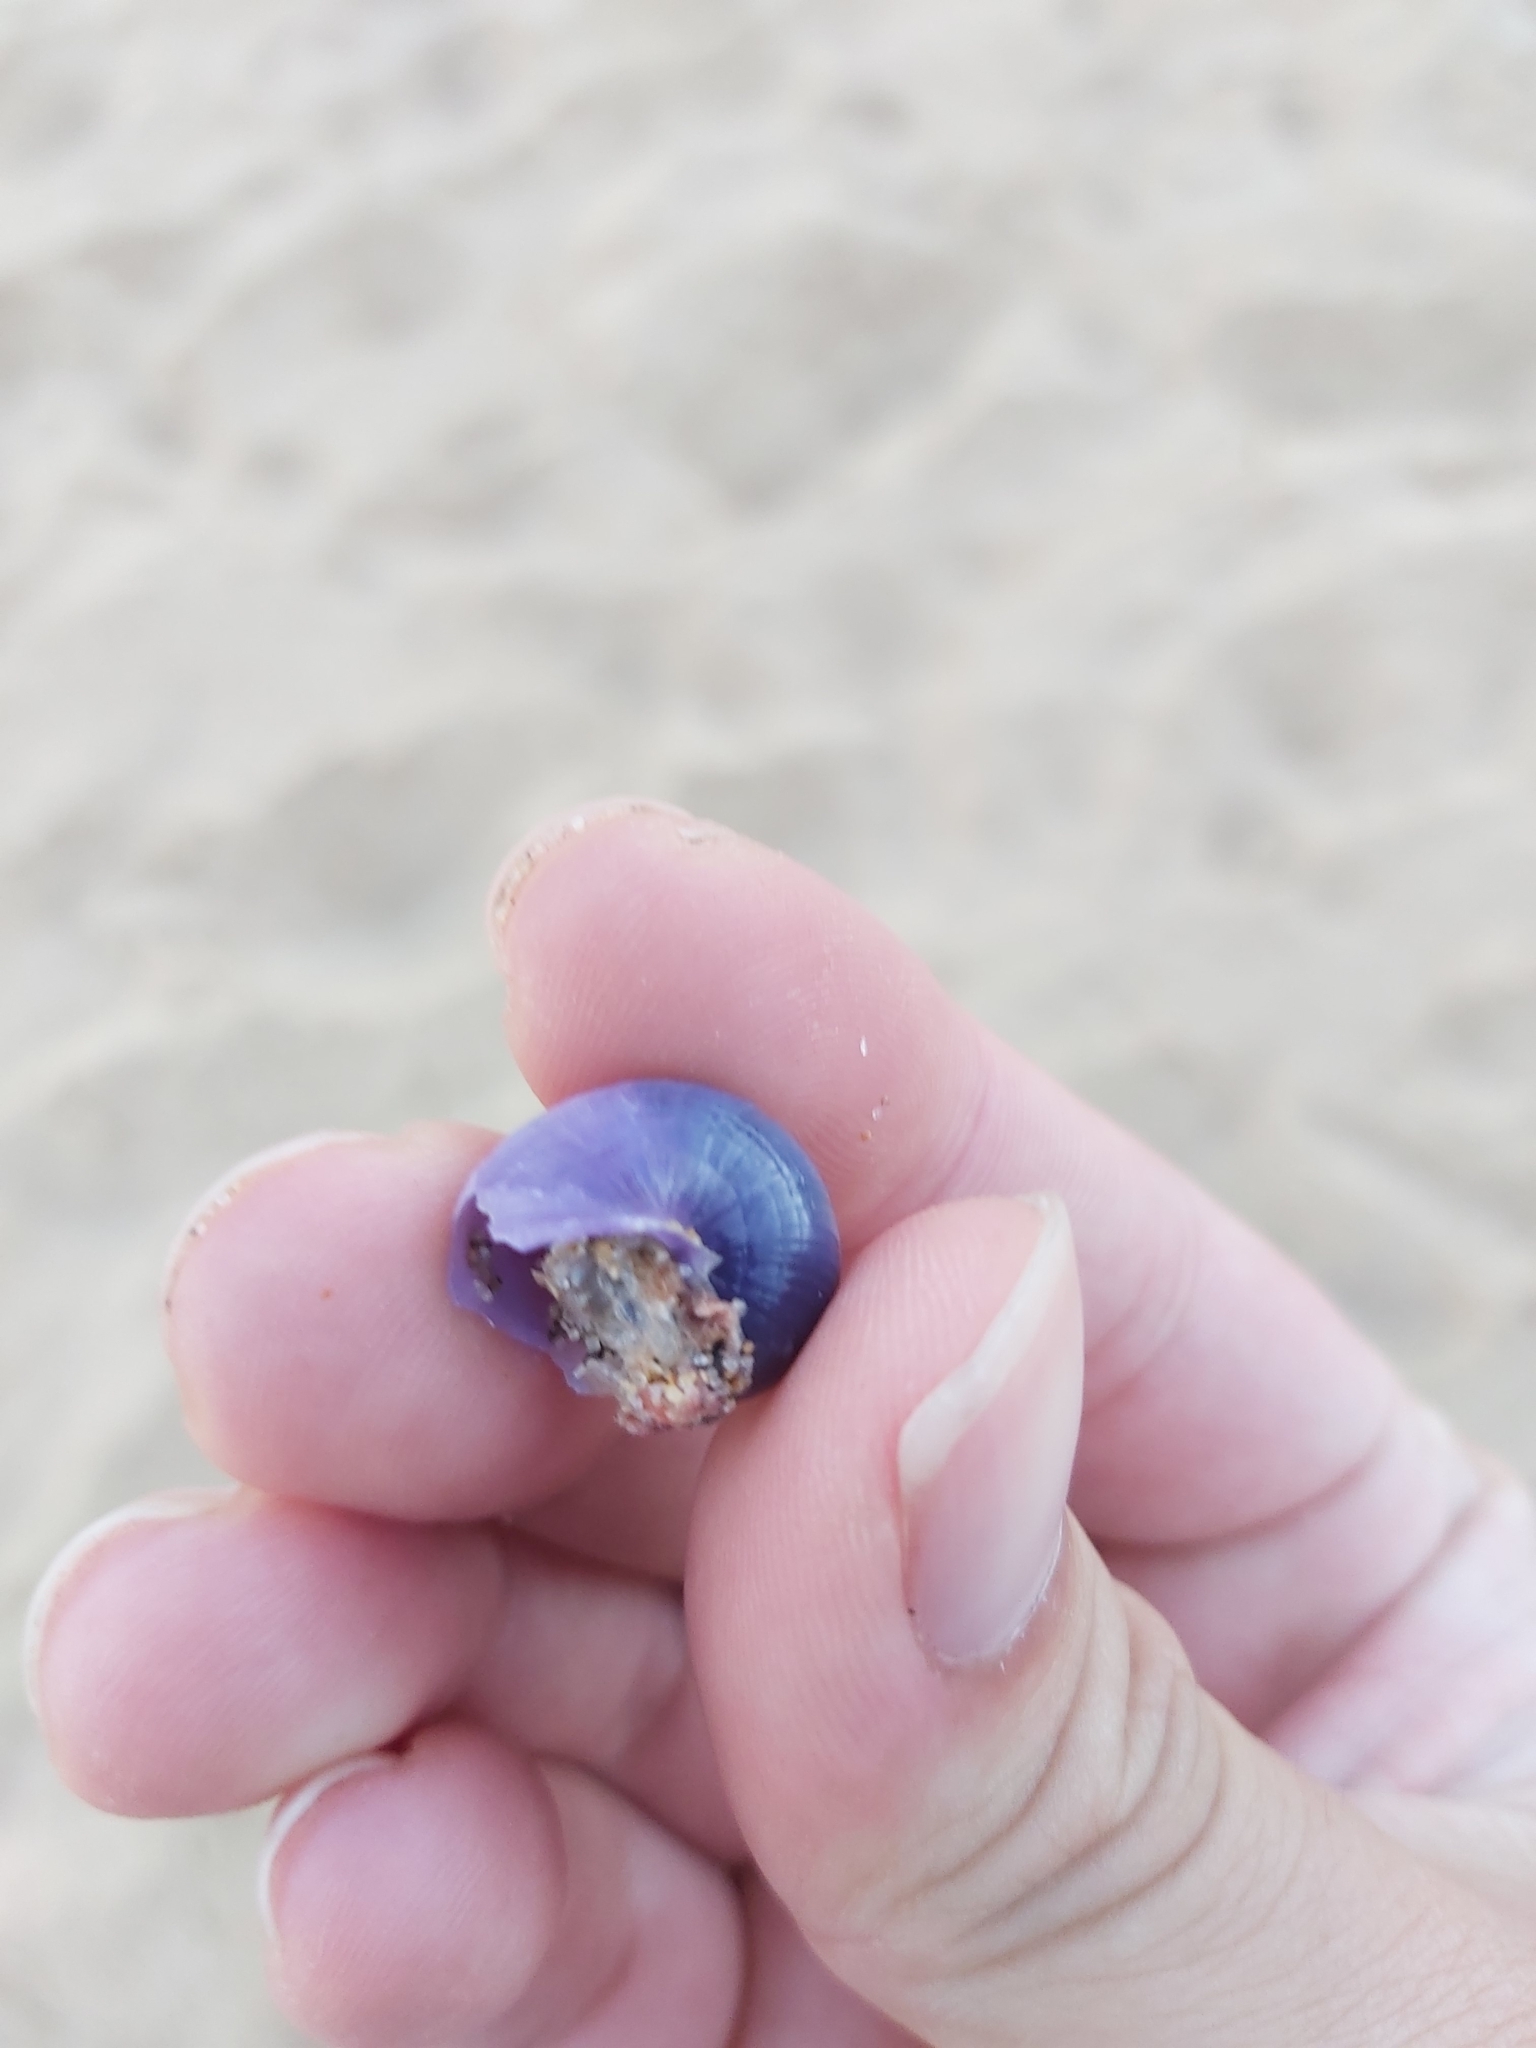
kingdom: Animalia
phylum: Mollusca
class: Gastropoda
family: Epitoniidae
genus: Janthina
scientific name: Janthina globosa
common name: Elongate janthina
